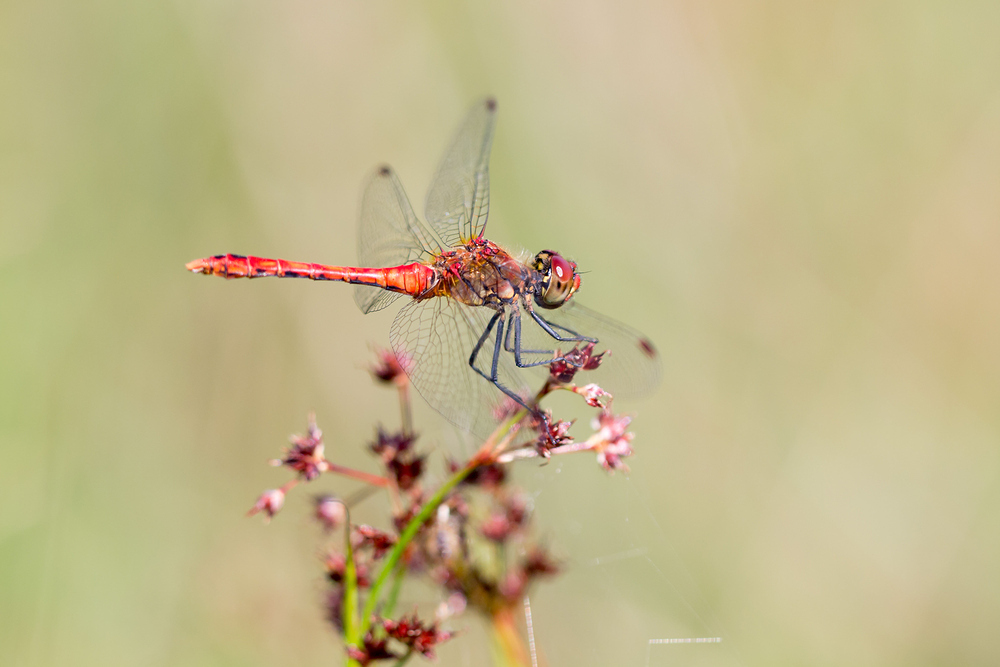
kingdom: Animalia
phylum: Arthropoda
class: Insecta
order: Odonata
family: Libellulidae
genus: Sympetrum
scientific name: Sympetrum sanguineum
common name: Ruddy darter
